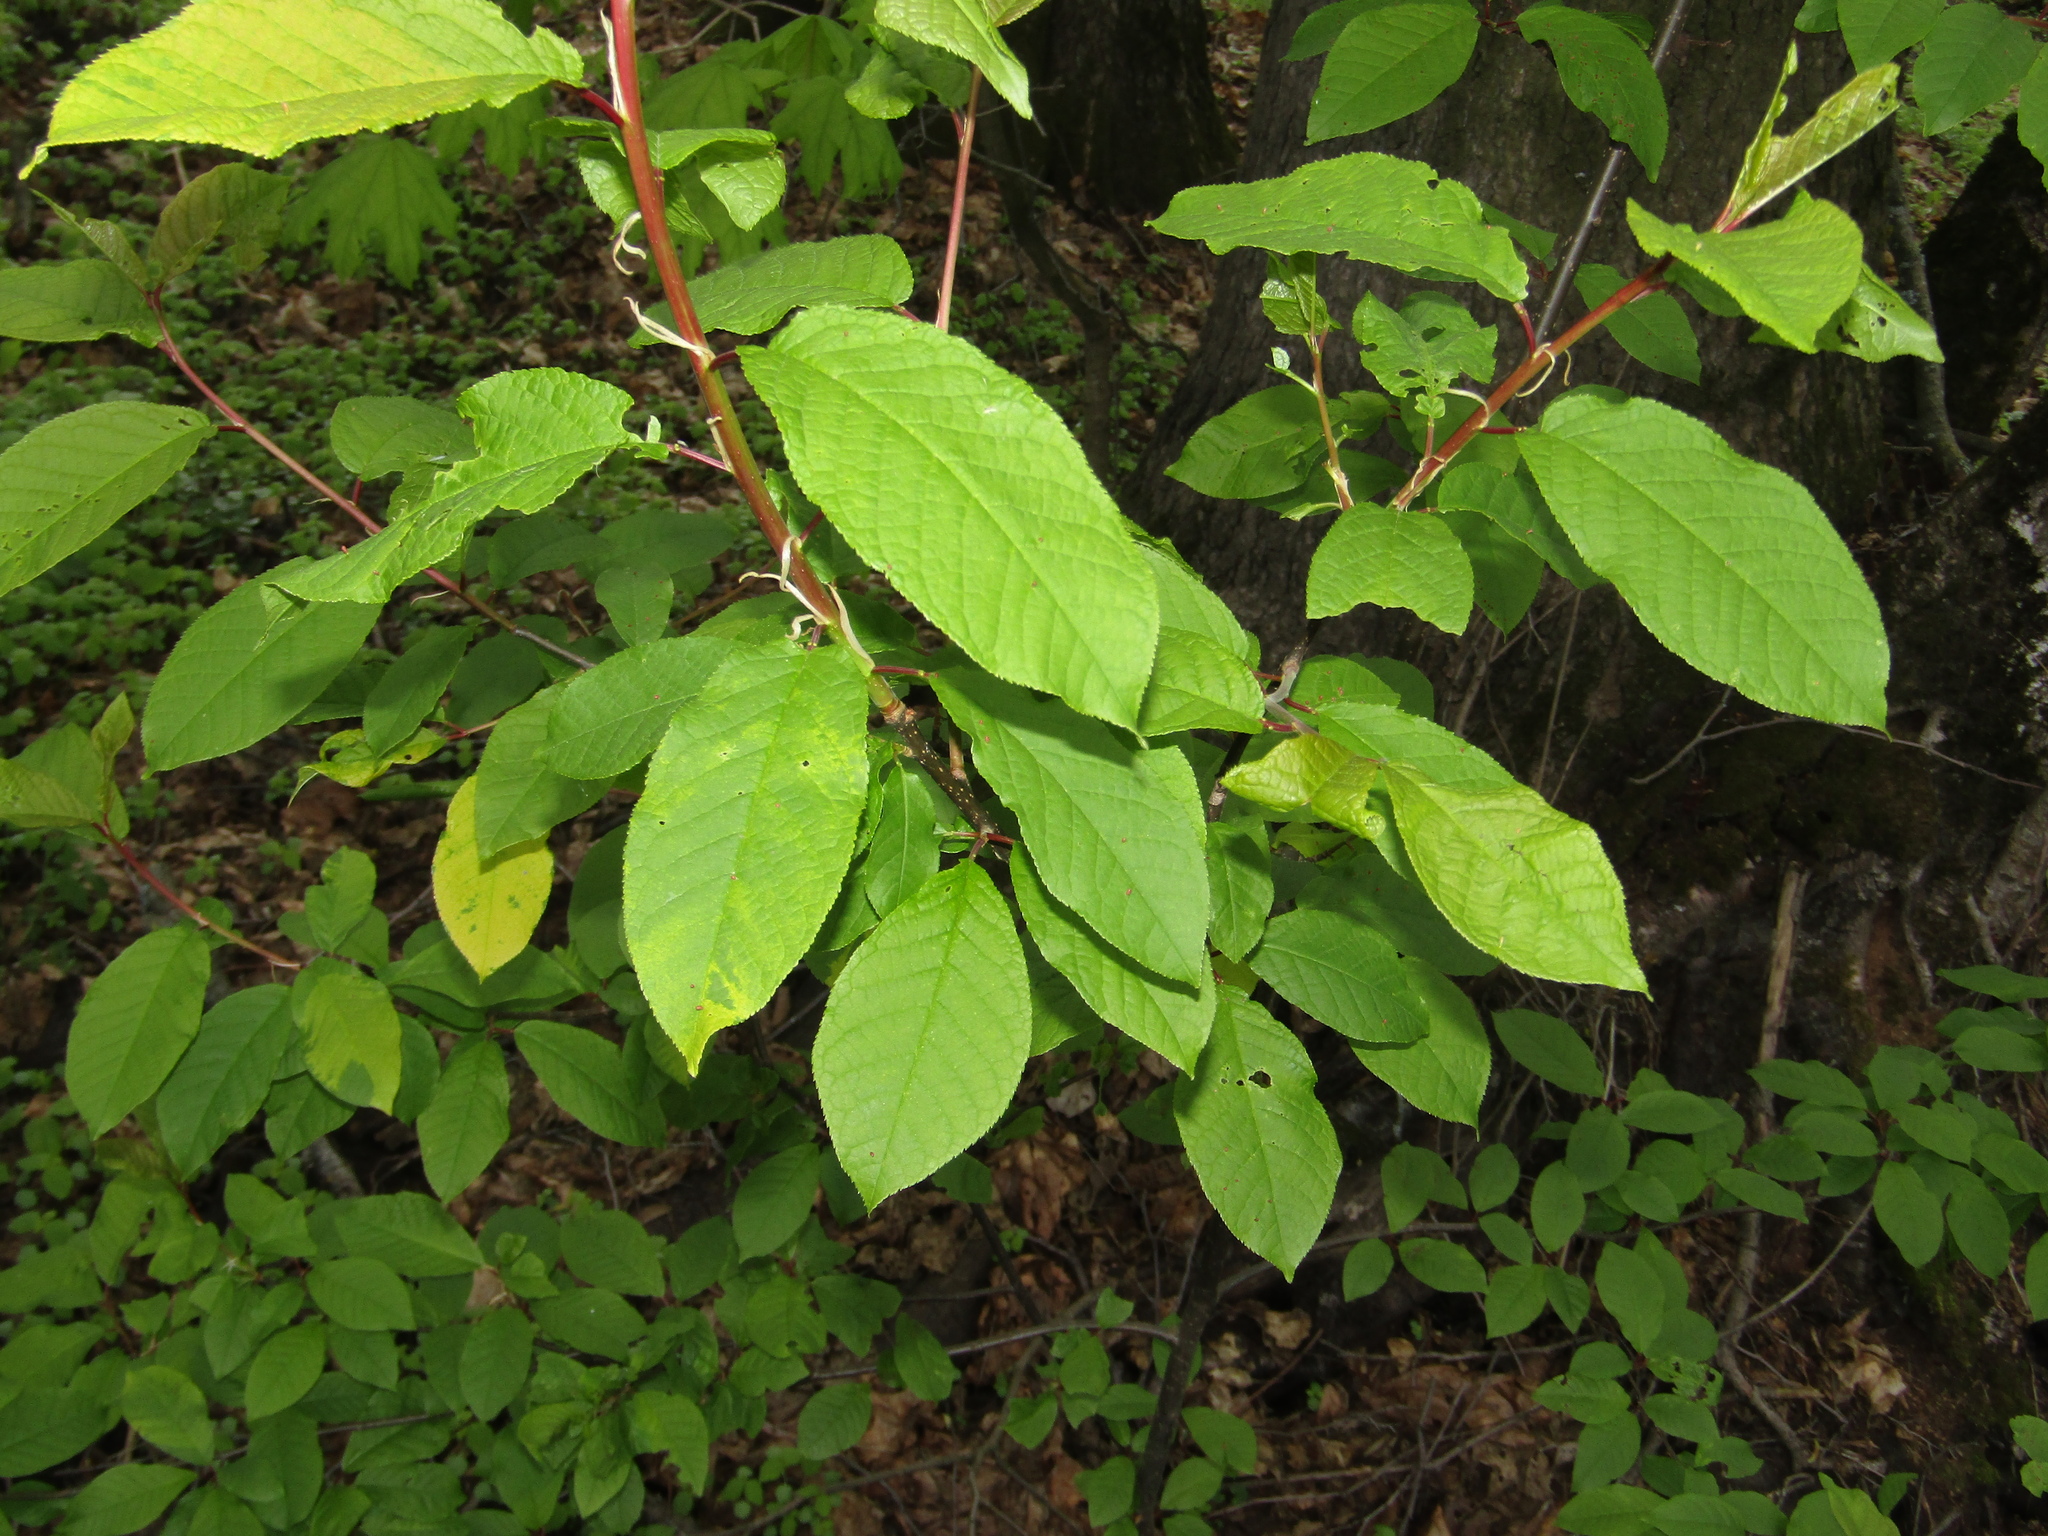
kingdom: Plantae
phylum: Tracheophyta
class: Magnoliopsida
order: Rosales
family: Rosaceae
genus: Prunus
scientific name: Prunus padus
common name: Bird cherry
